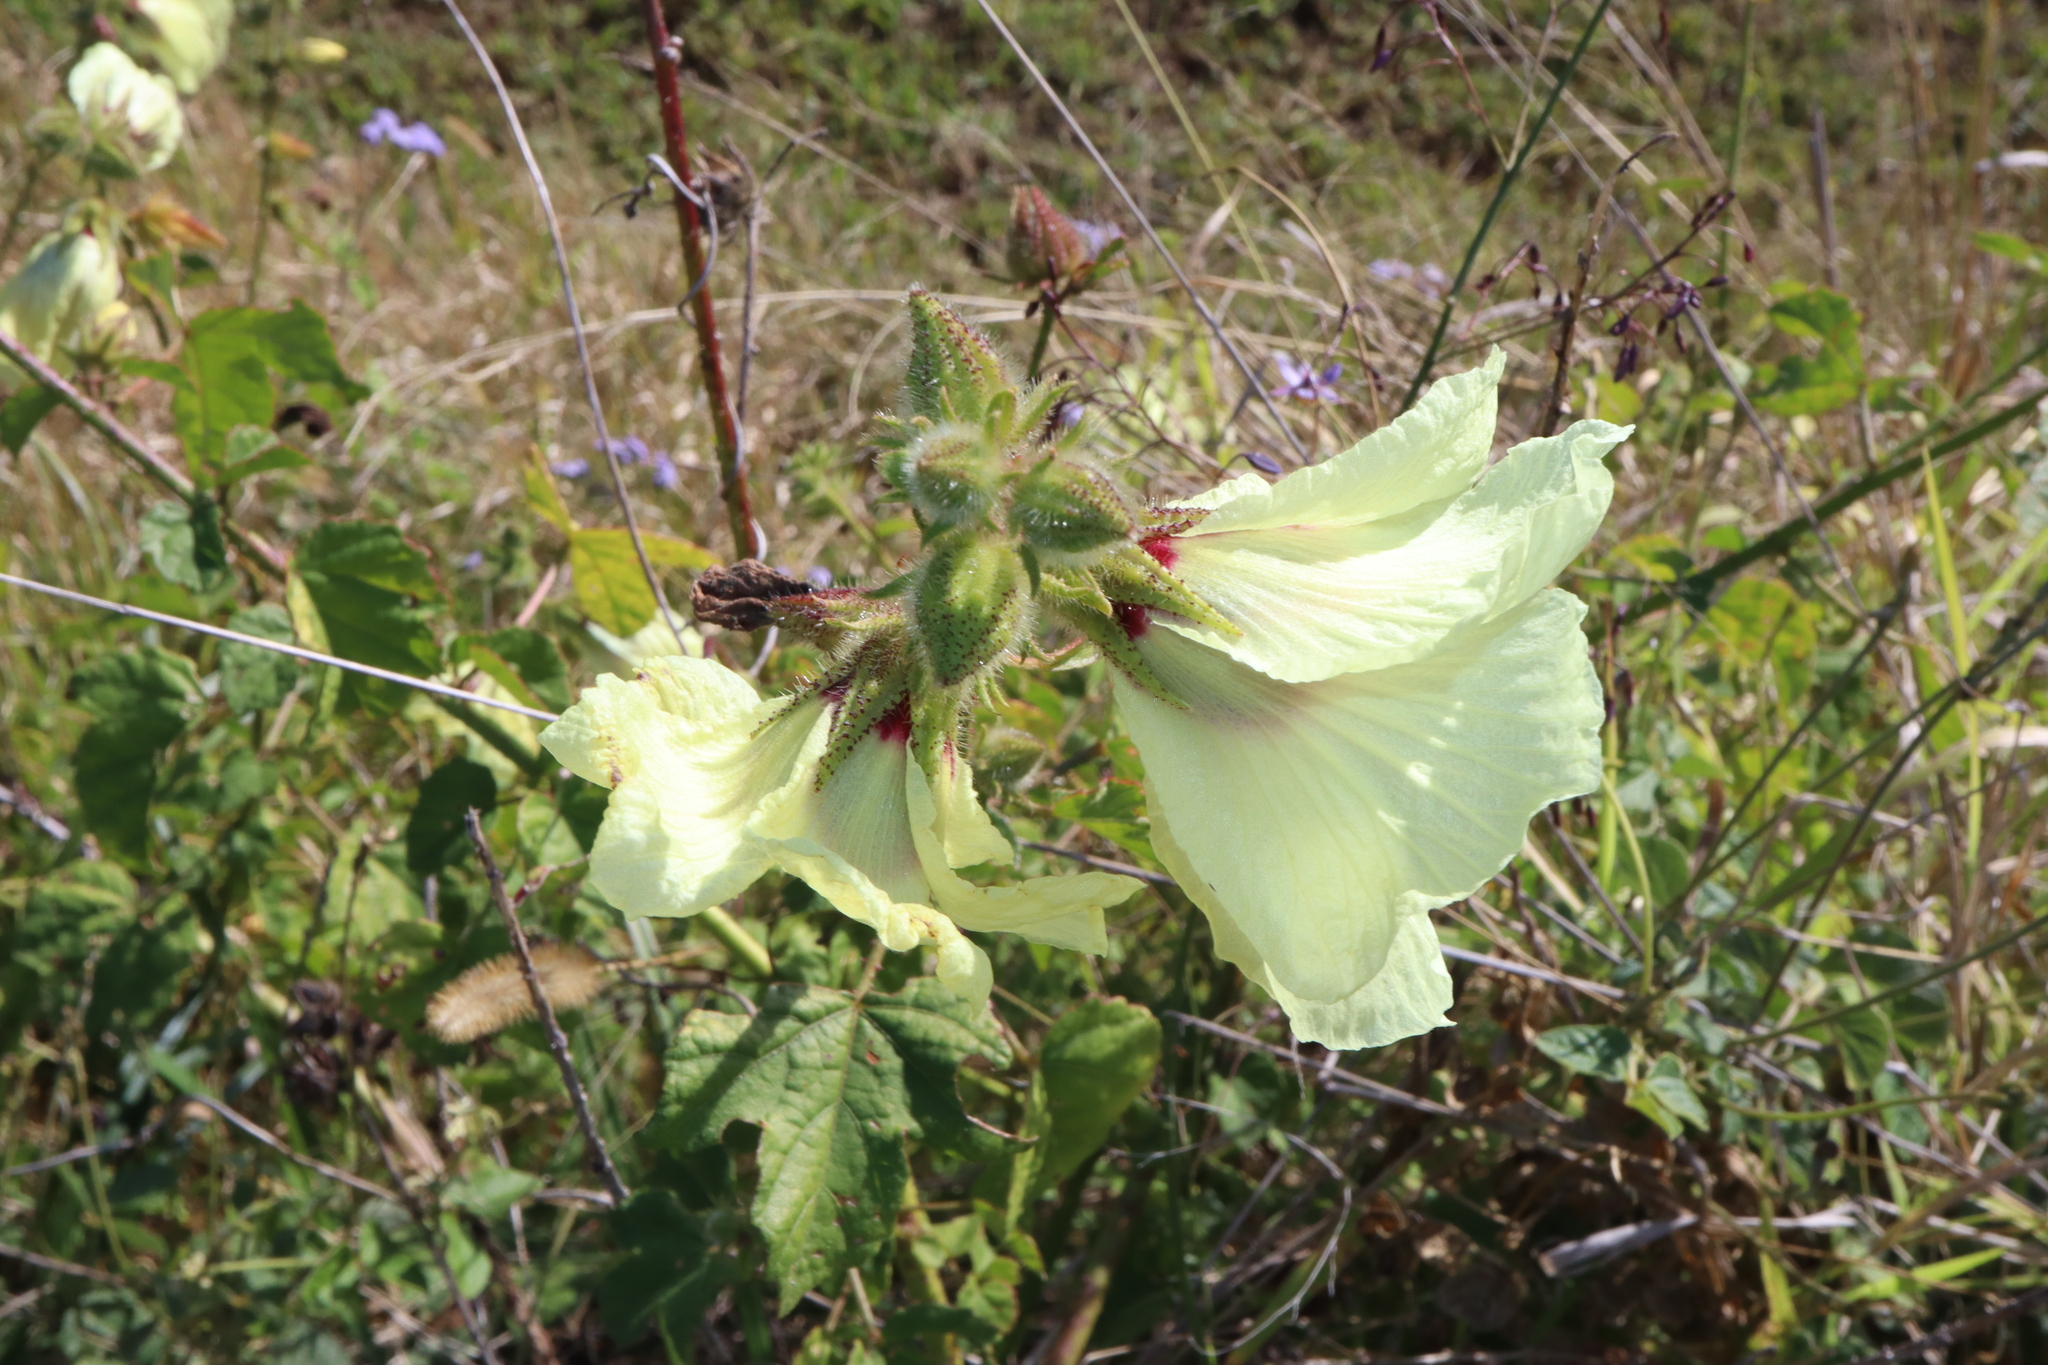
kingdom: Plantae
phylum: Tracheophyta
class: Magnoliopsida
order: Malvales
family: Malvaceae
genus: Hibiscus
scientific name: Hibiscus diversifolius
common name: Cape hibiscus
